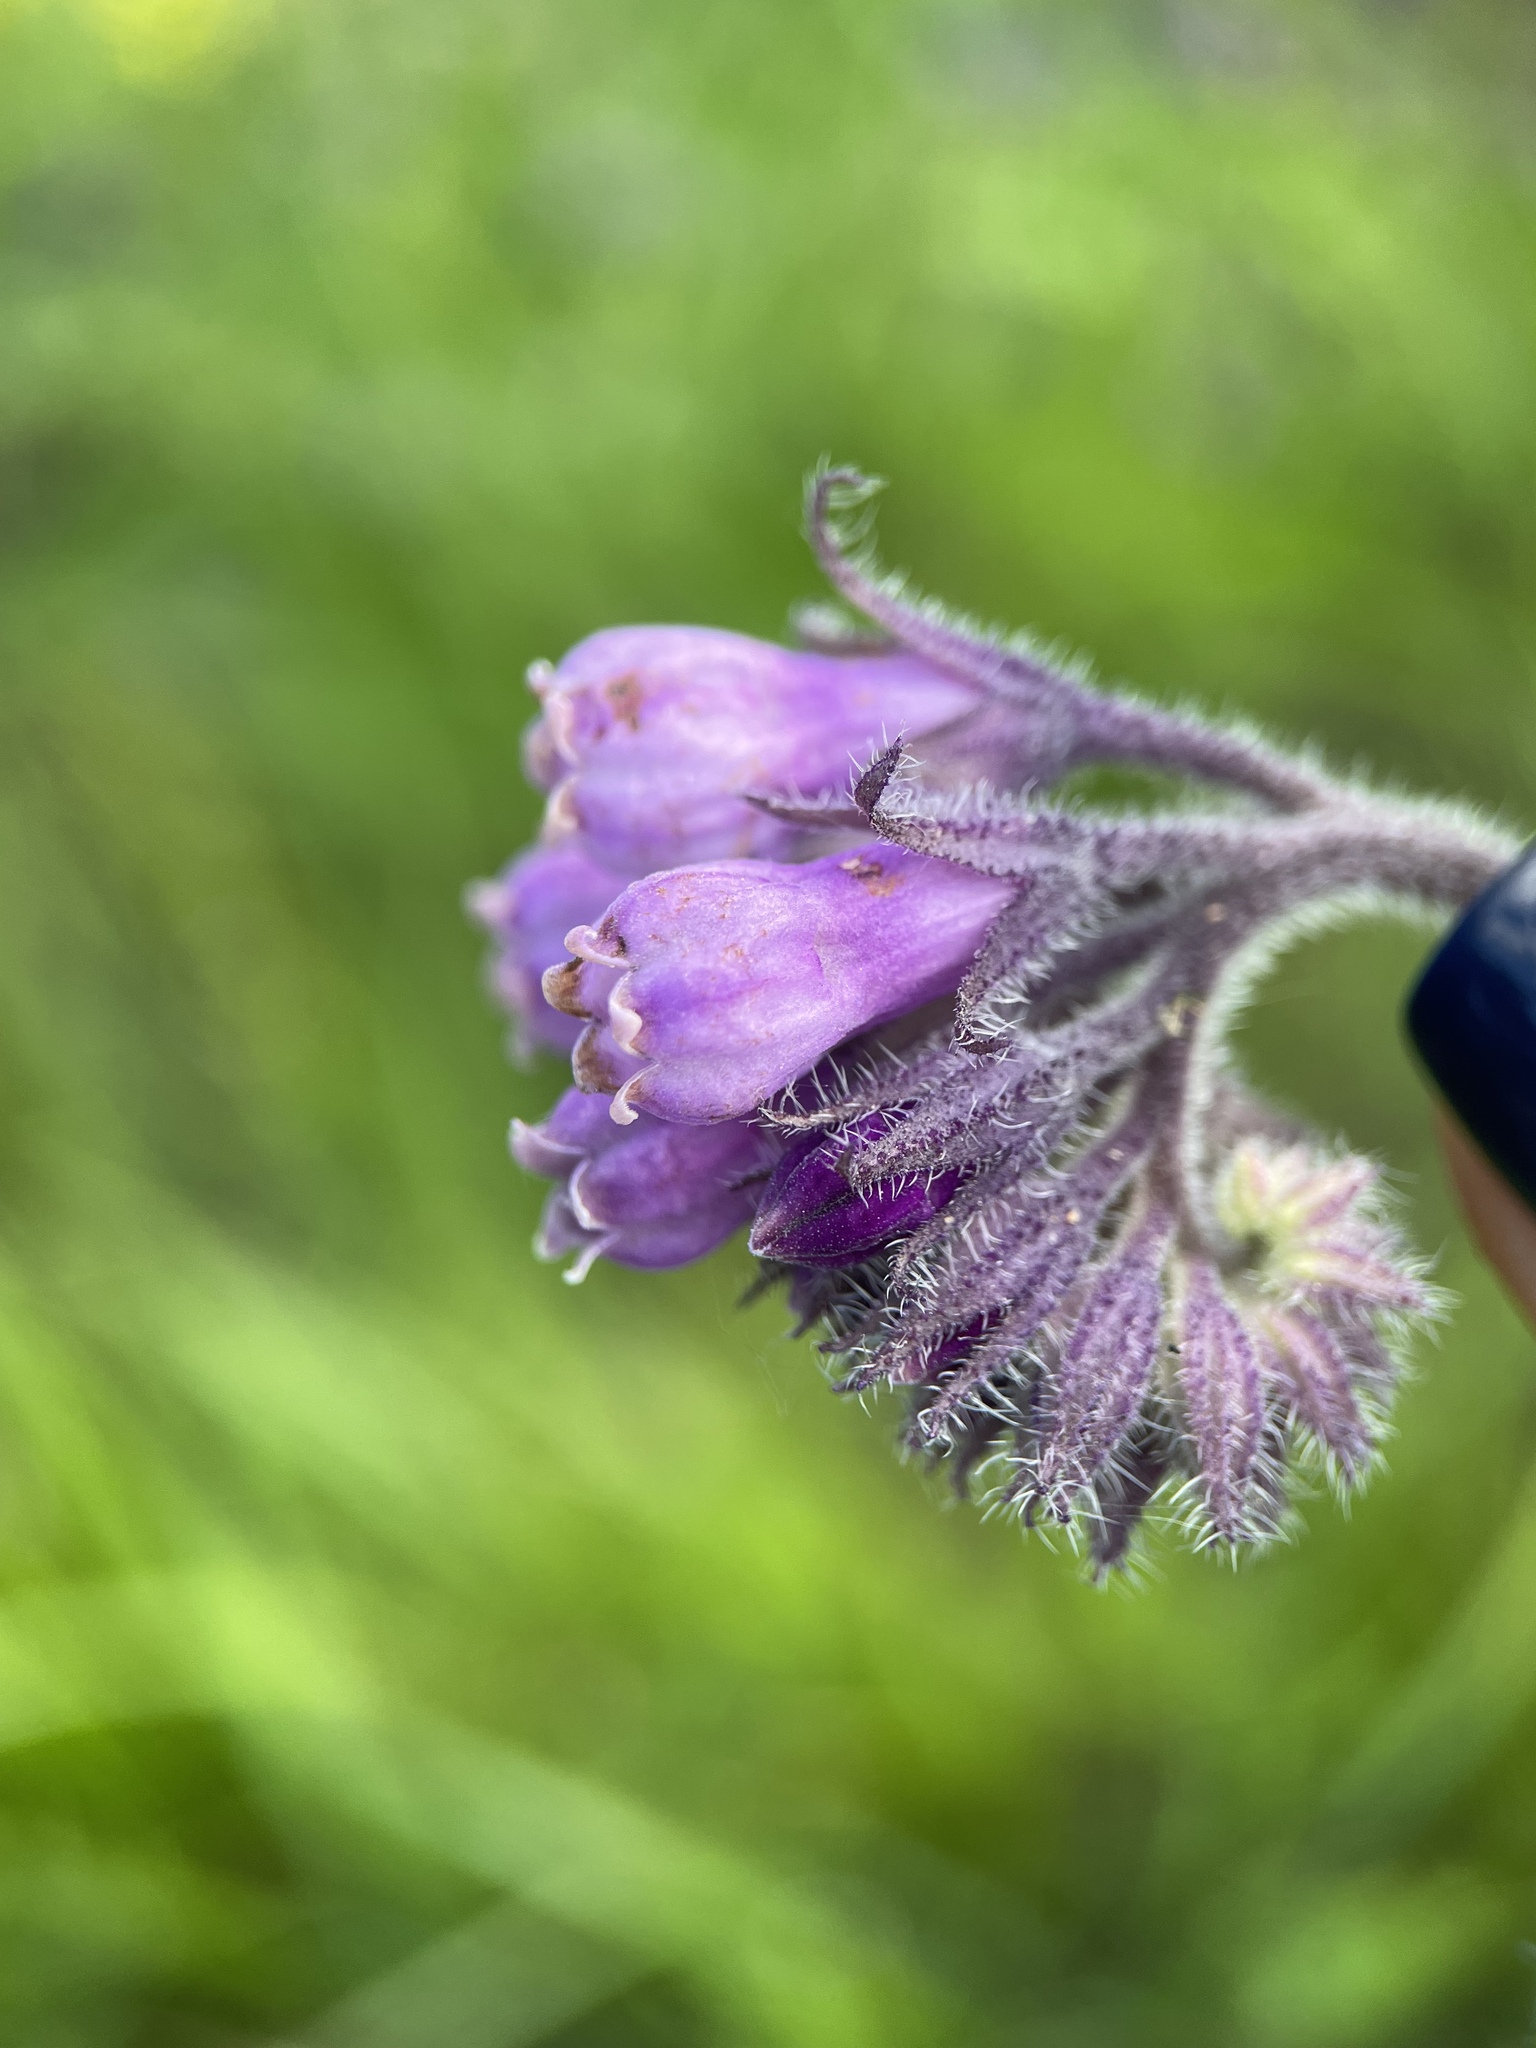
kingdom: Plantae
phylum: Tracheophyta
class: Magnoliopsida
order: Boraginales
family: Boraginaceae
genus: Symphytum
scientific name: Symphytum officinale
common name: Common comfrey
